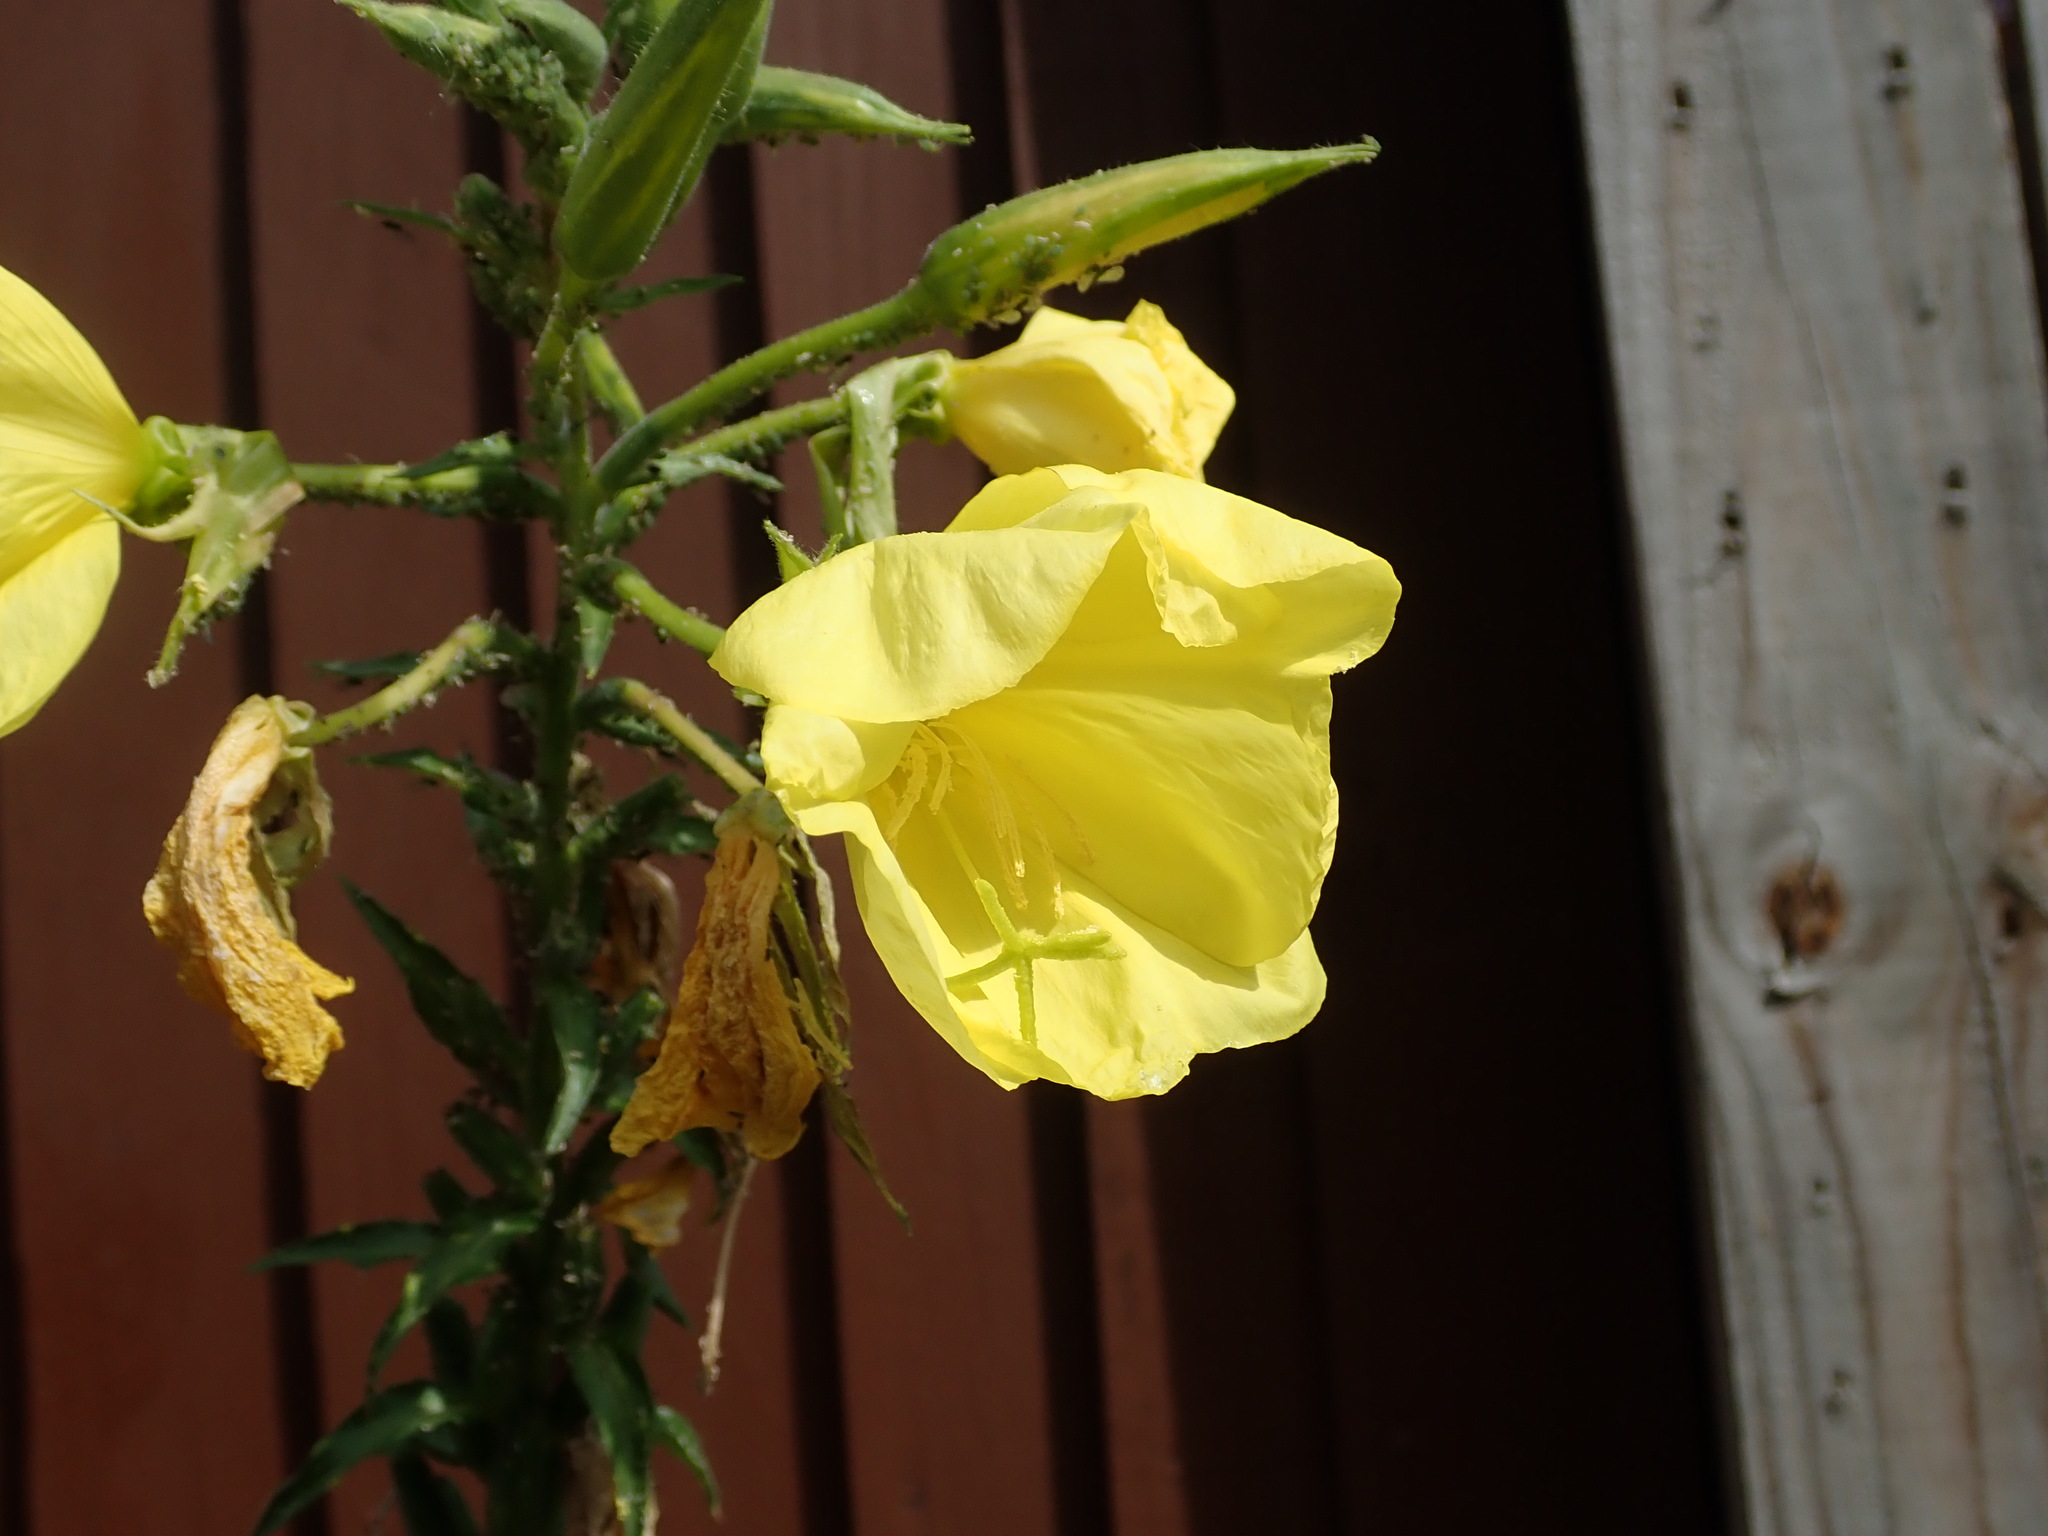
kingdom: Plantae
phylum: Tracheophyta
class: Magnoliopsida
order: Myrtales
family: Onagraceae
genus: Oenothera
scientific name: Oenothera glazioviana
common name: Large-flowered evening-primrose
